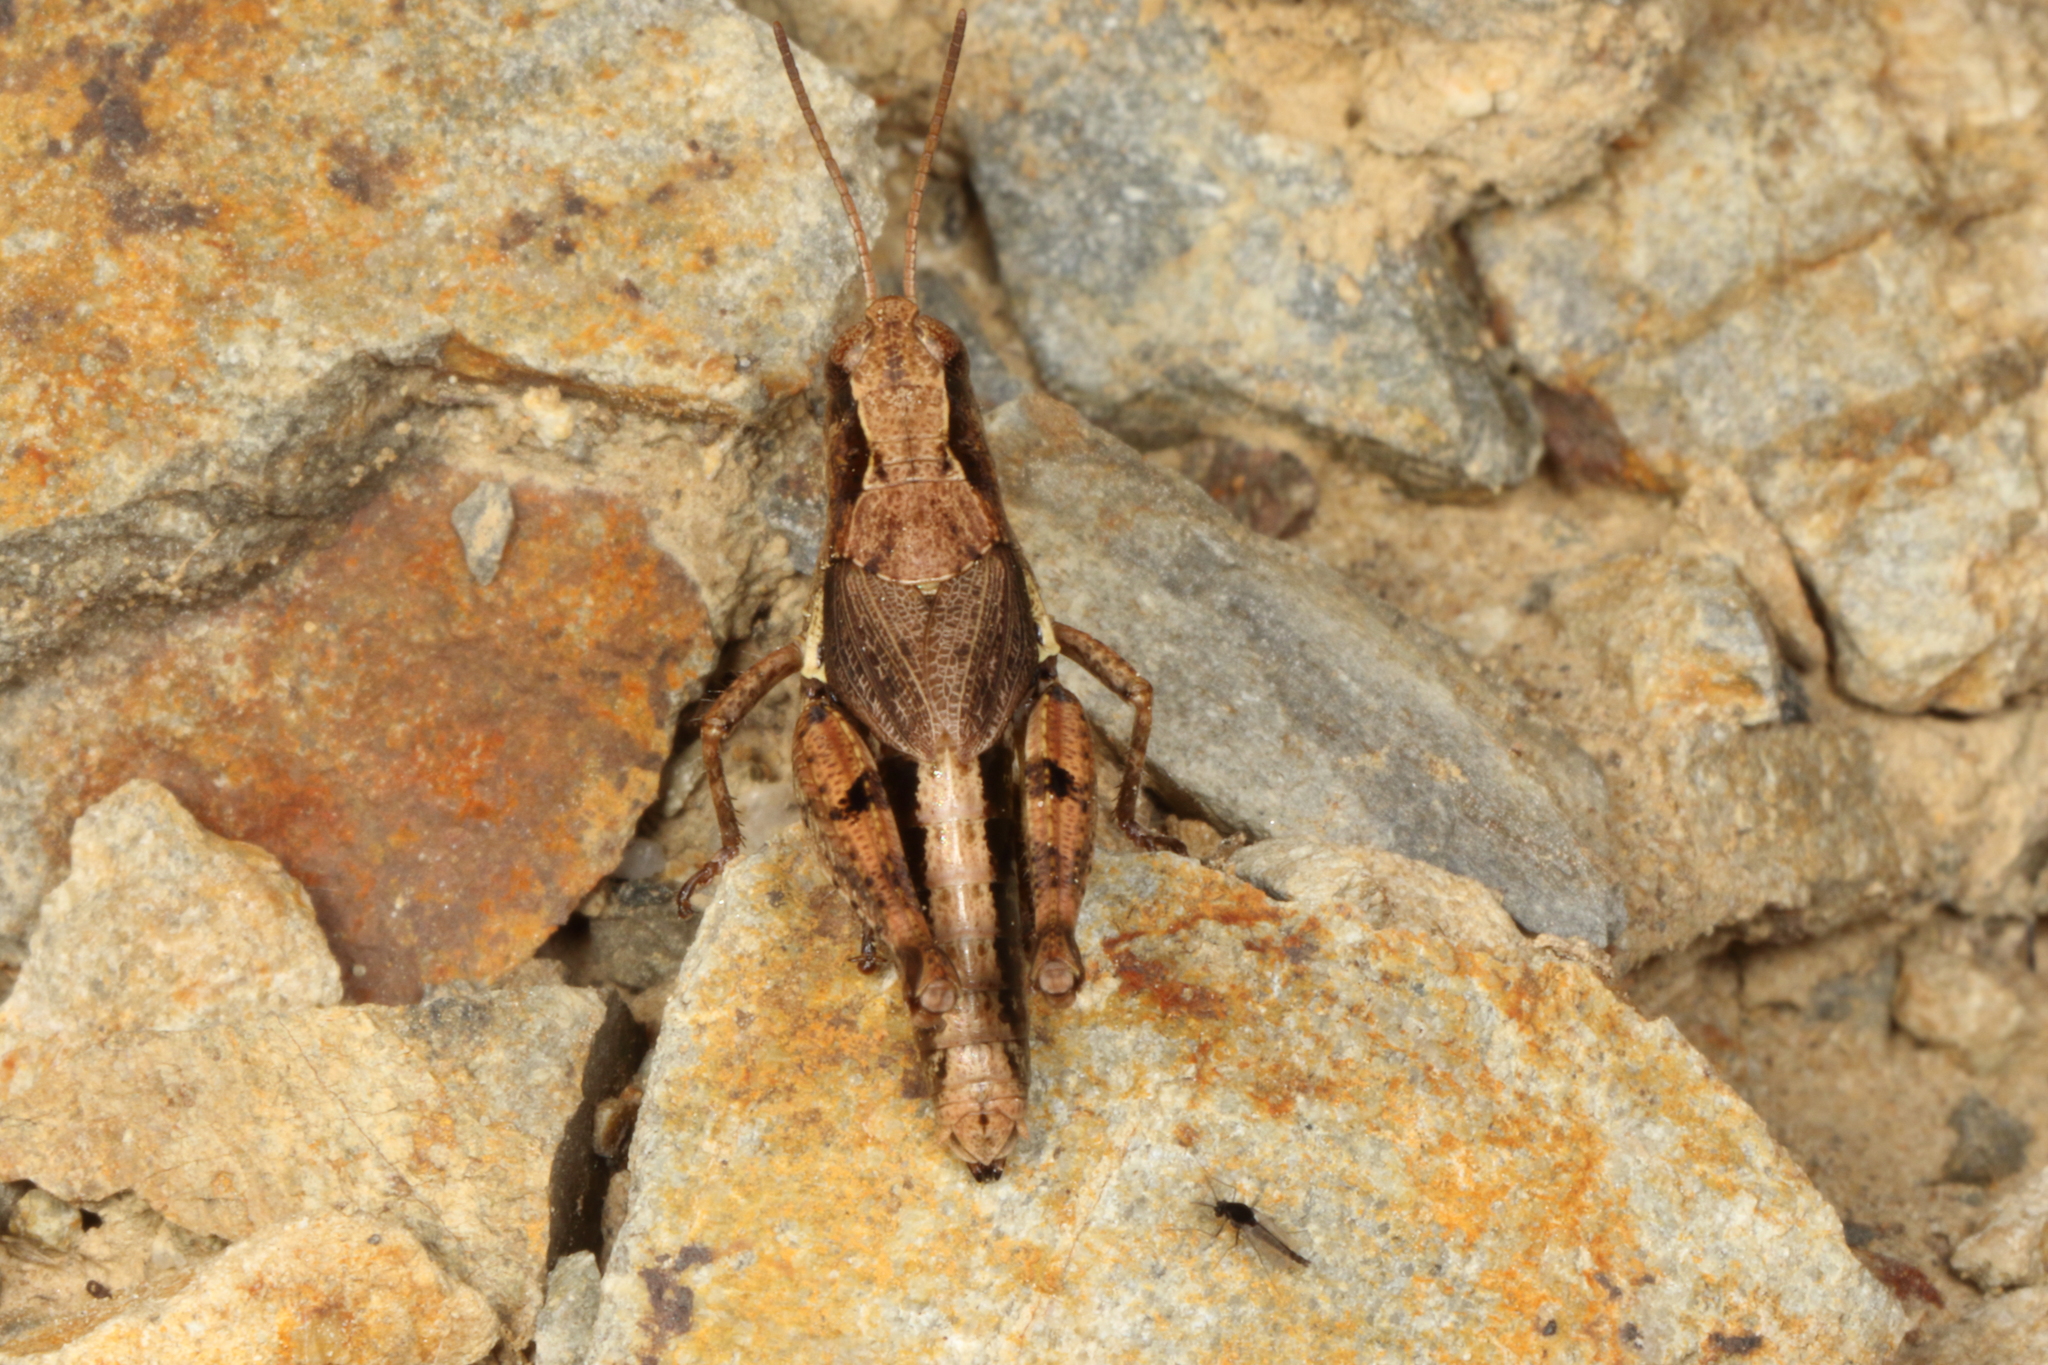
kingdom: Animalia
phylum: Arthropoda
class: Insecta
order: Orthoptera
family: Acrididae
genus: Phaulacridium
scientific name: Phaulacridium marginale
